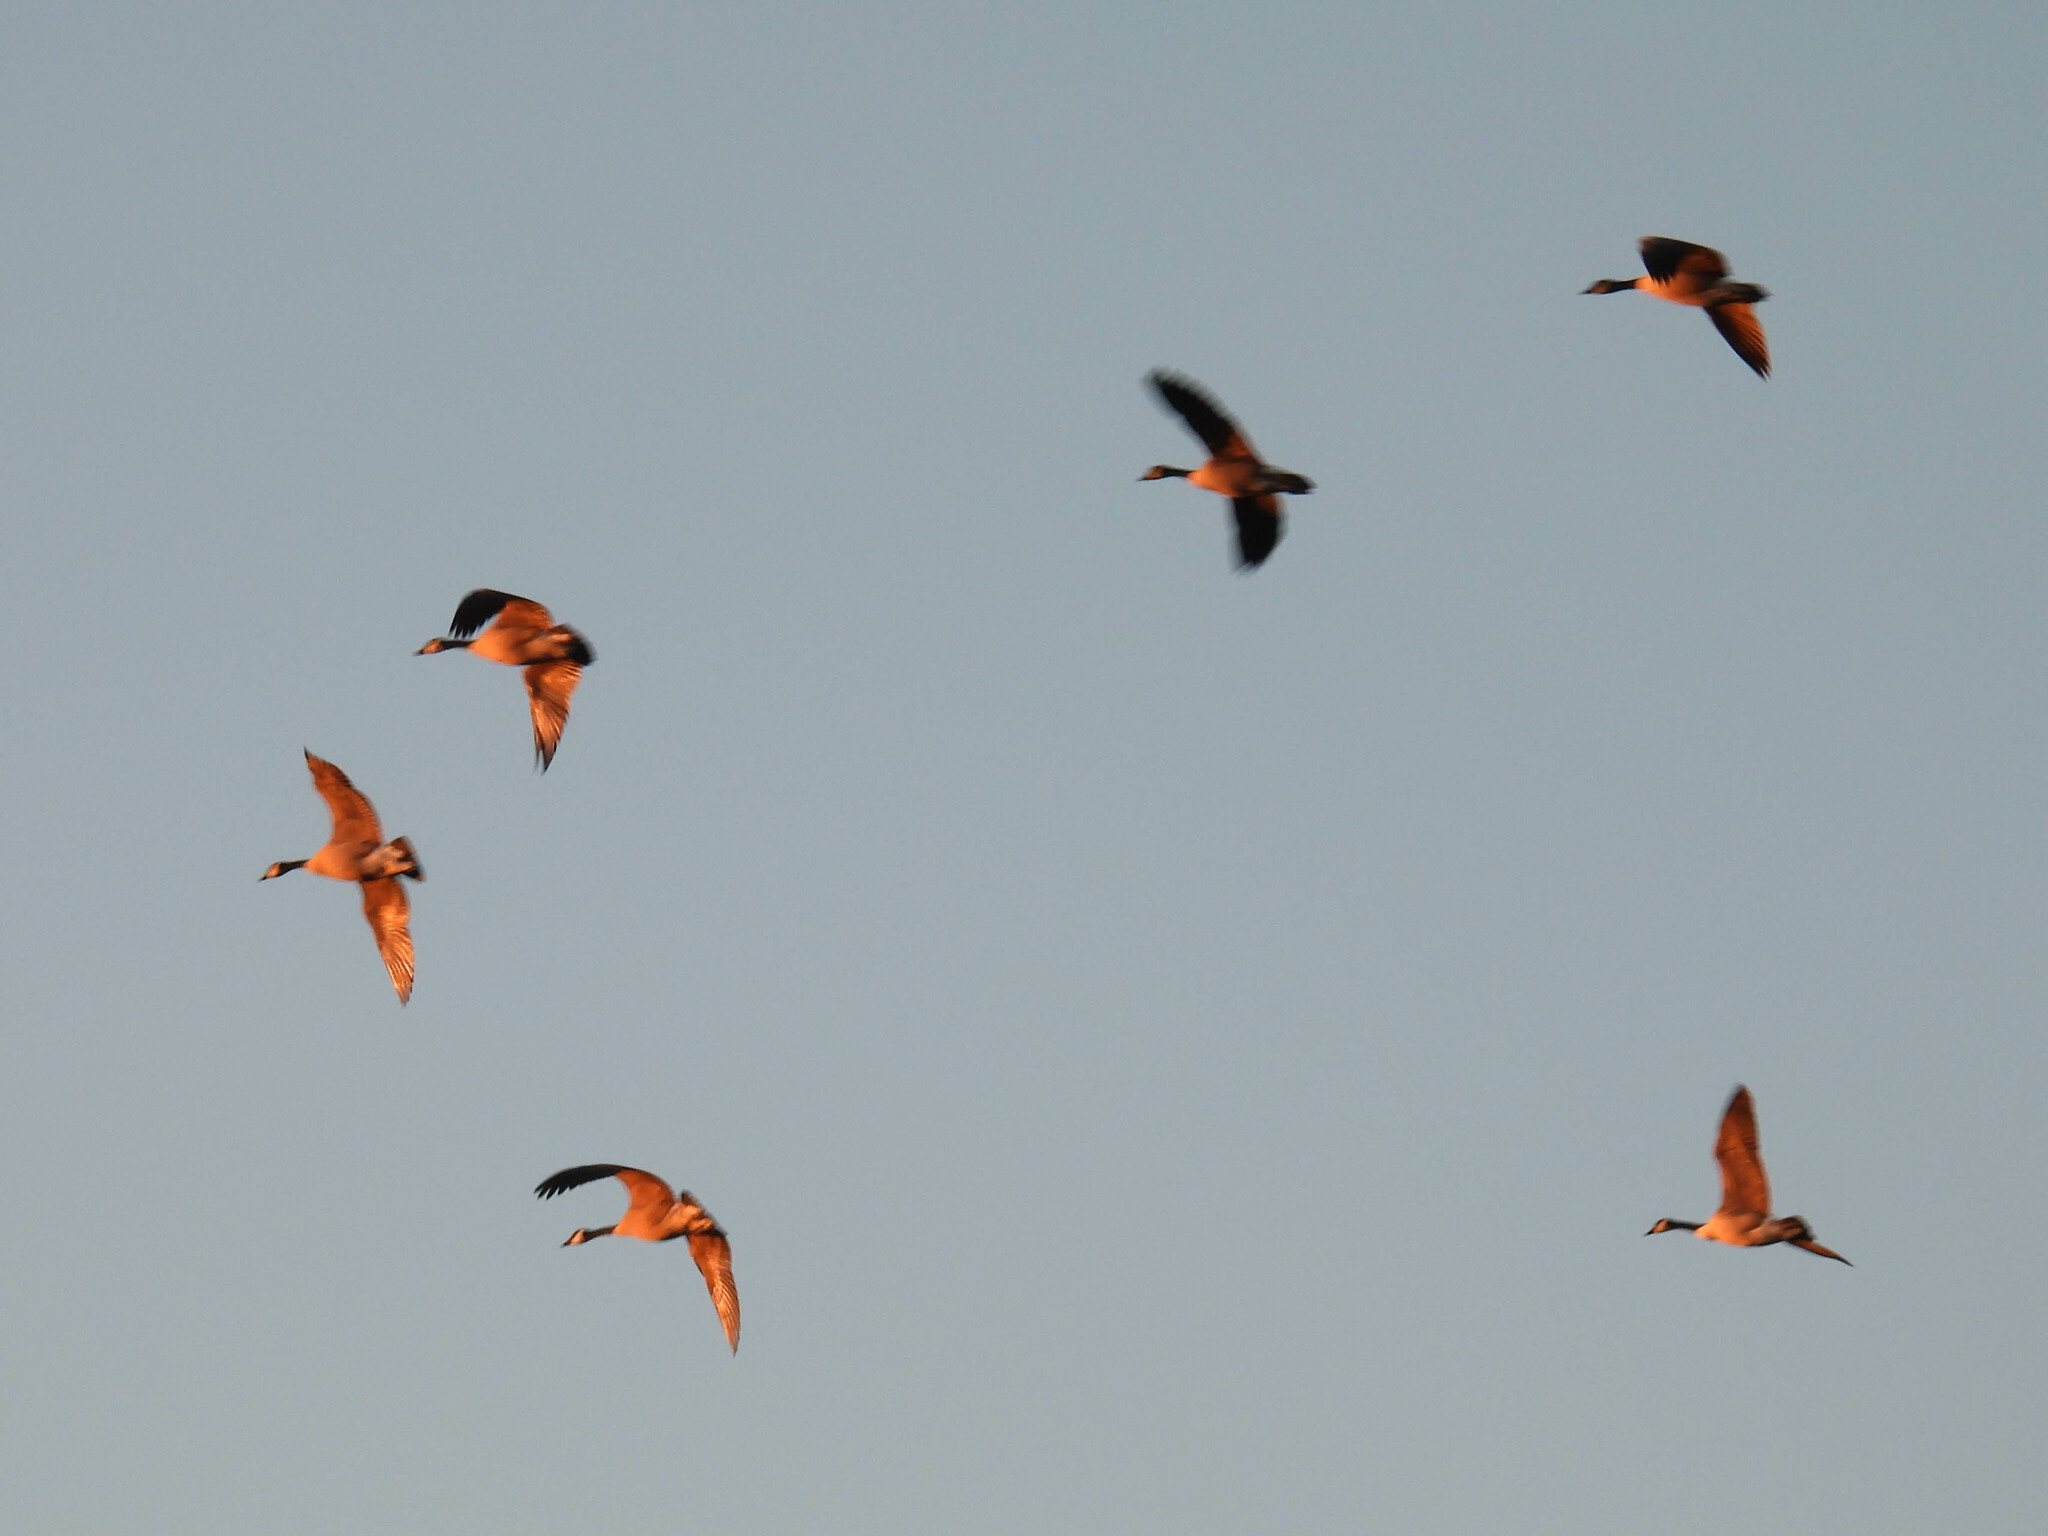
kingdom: Animalia
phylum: Chordata
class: Aves
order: Anseriformes
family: Anatidae
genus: Branta
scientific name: Branta canadensis
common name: Canada goose
